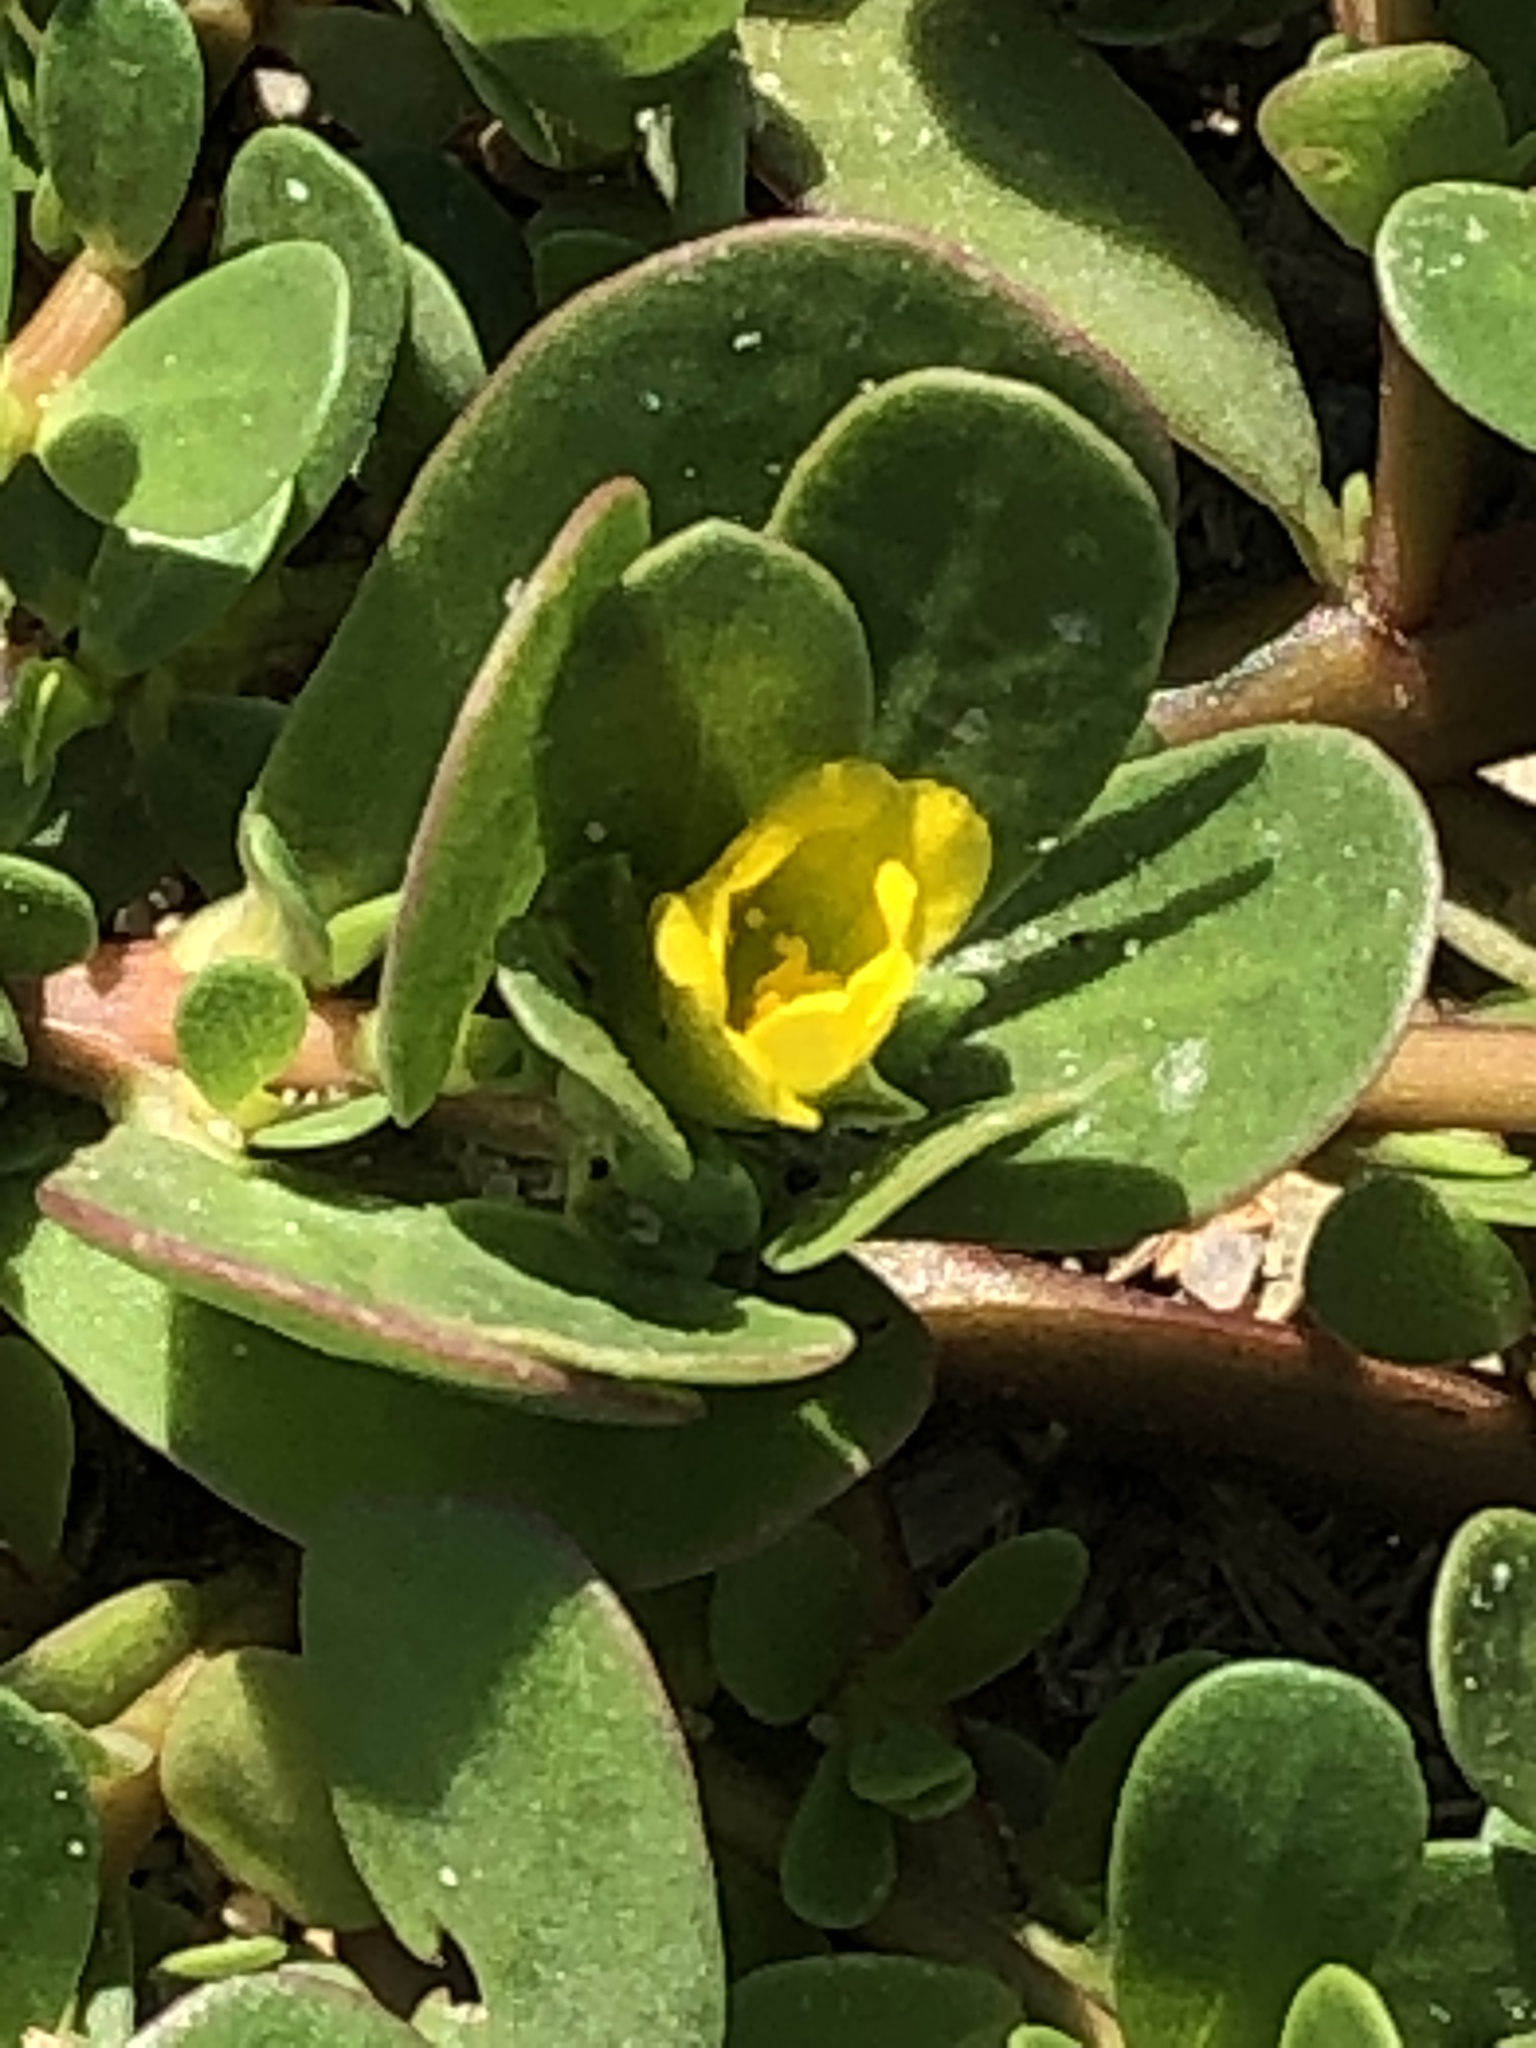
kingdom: Plantae
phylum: Tracheophyta
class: Magnoliopsida
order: Caryophyllales
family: Portulacaceae
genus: Portulaca
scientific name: Portulaca oleracea
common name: Common purslane
